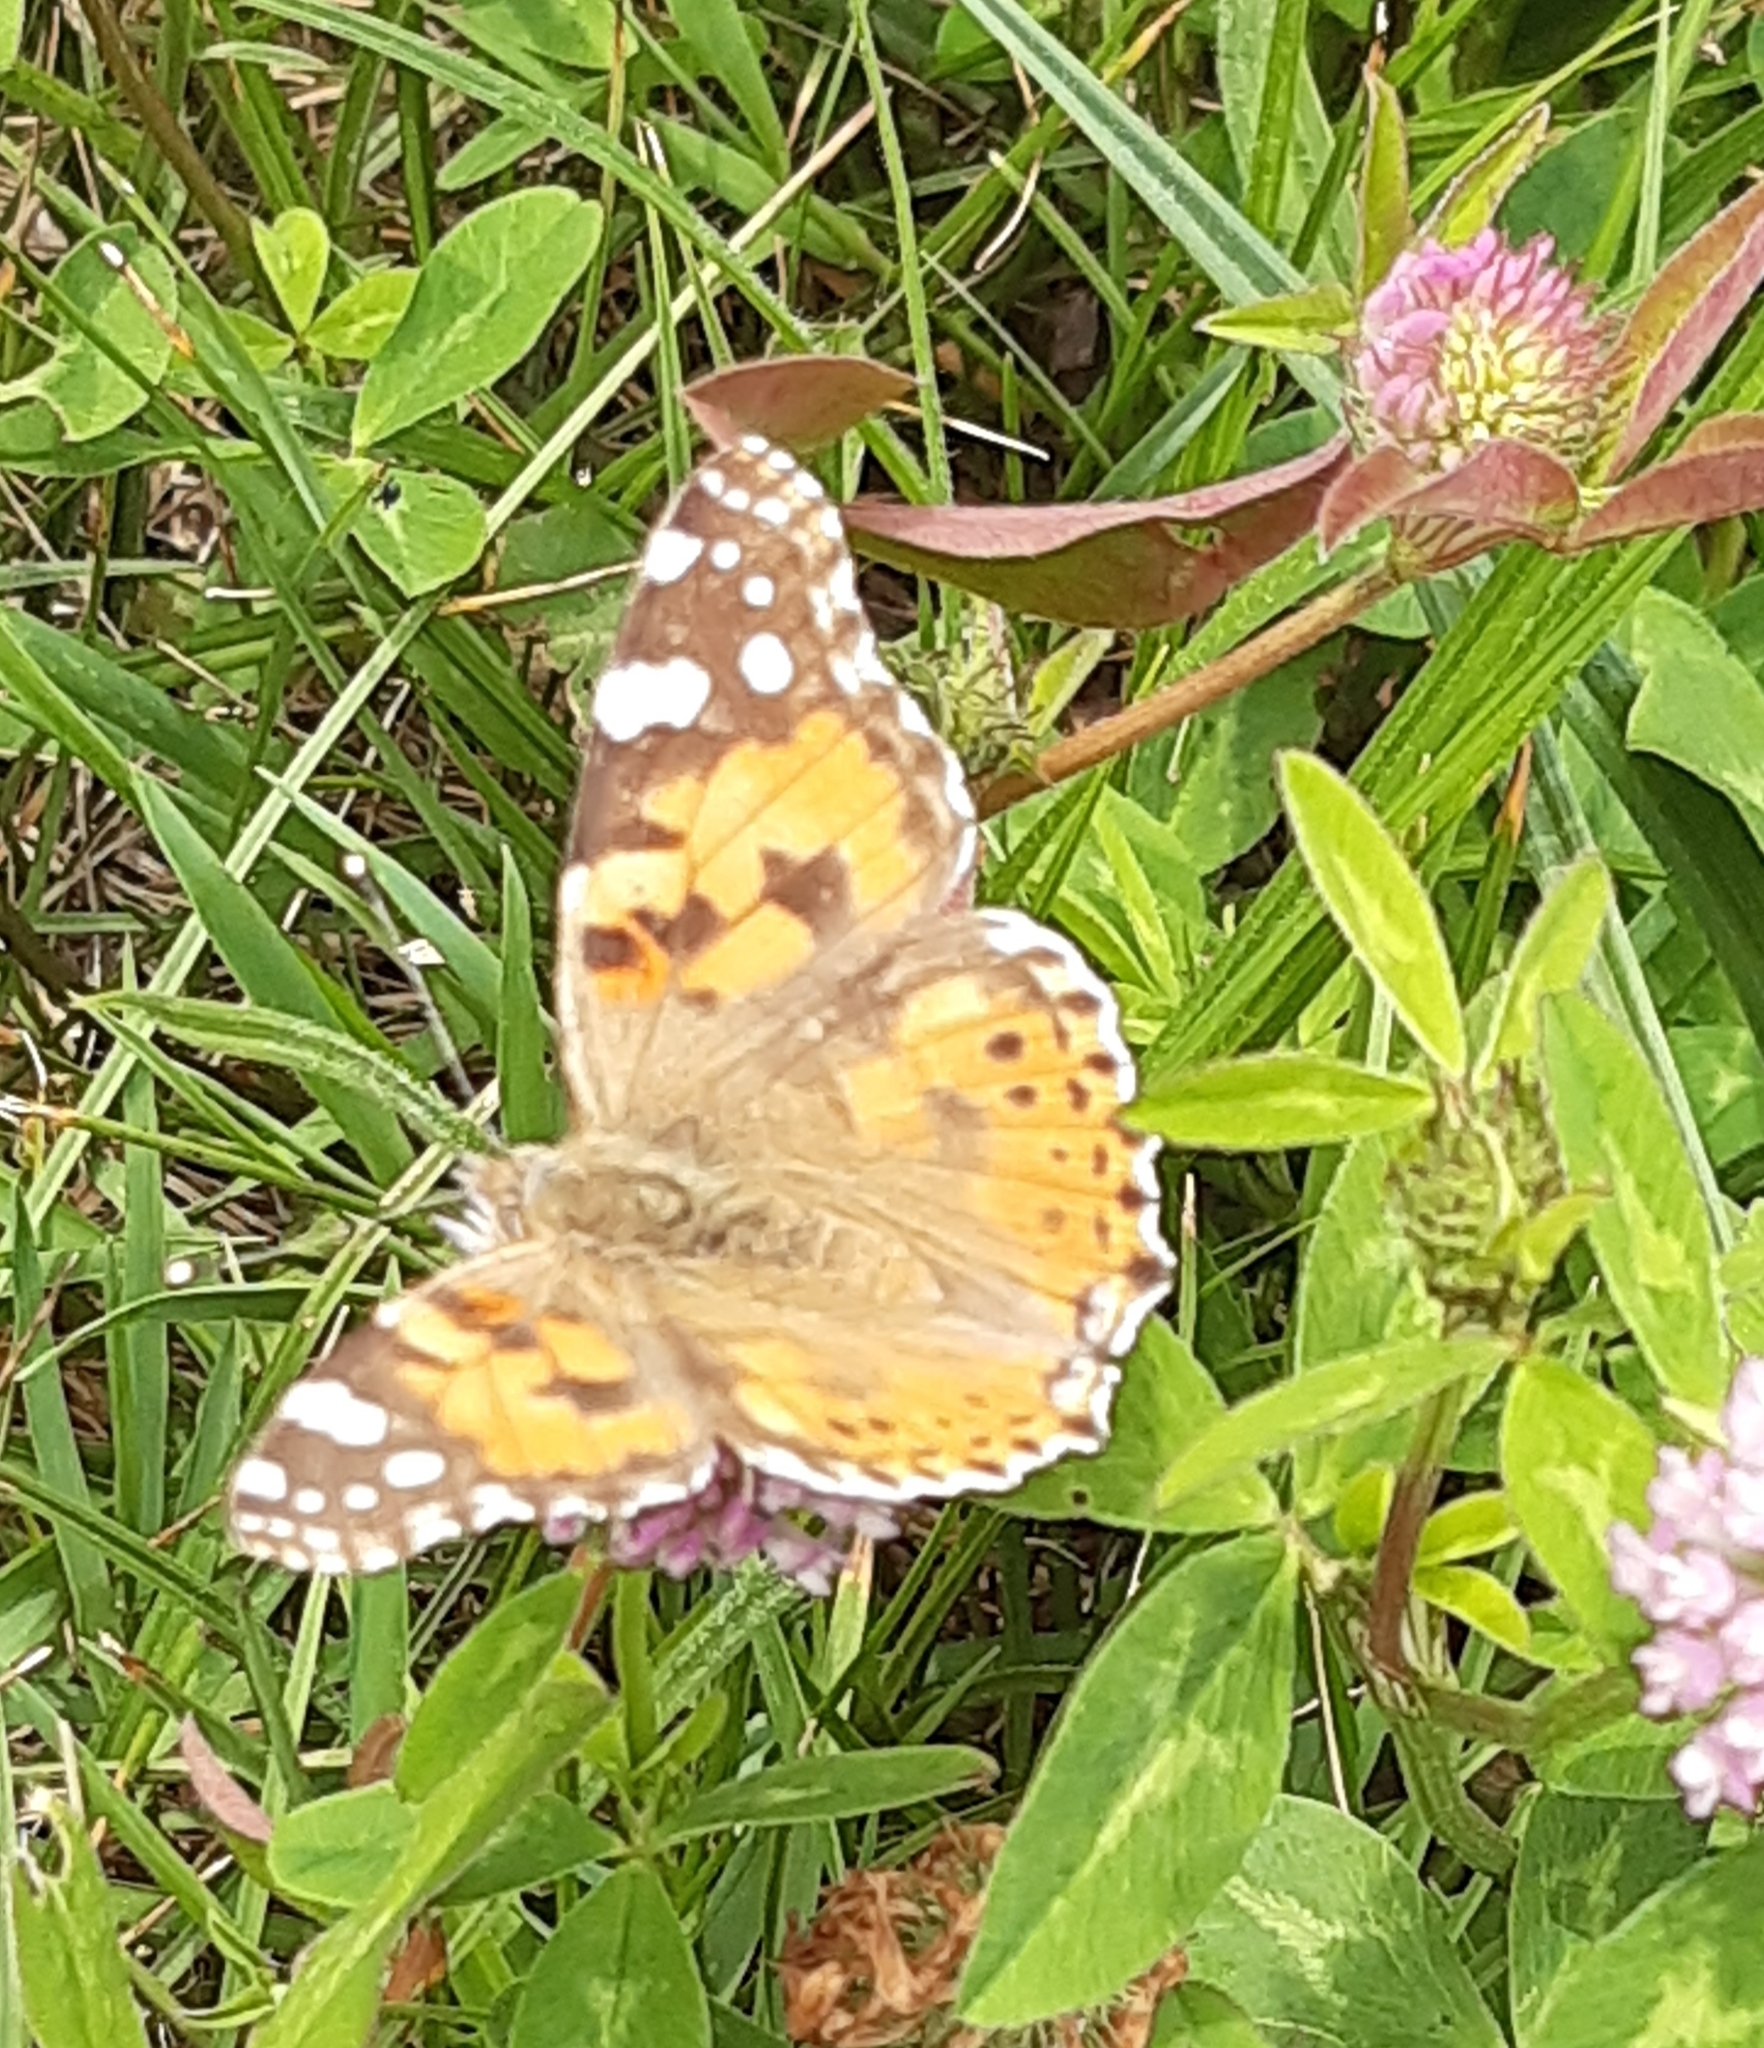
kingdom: Animalia
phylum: Arthropoda
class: Insecta
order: Lepidoptera
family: Nymphalidae
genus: Vanessa
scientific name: Vanessa cardui
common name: Painted lady
